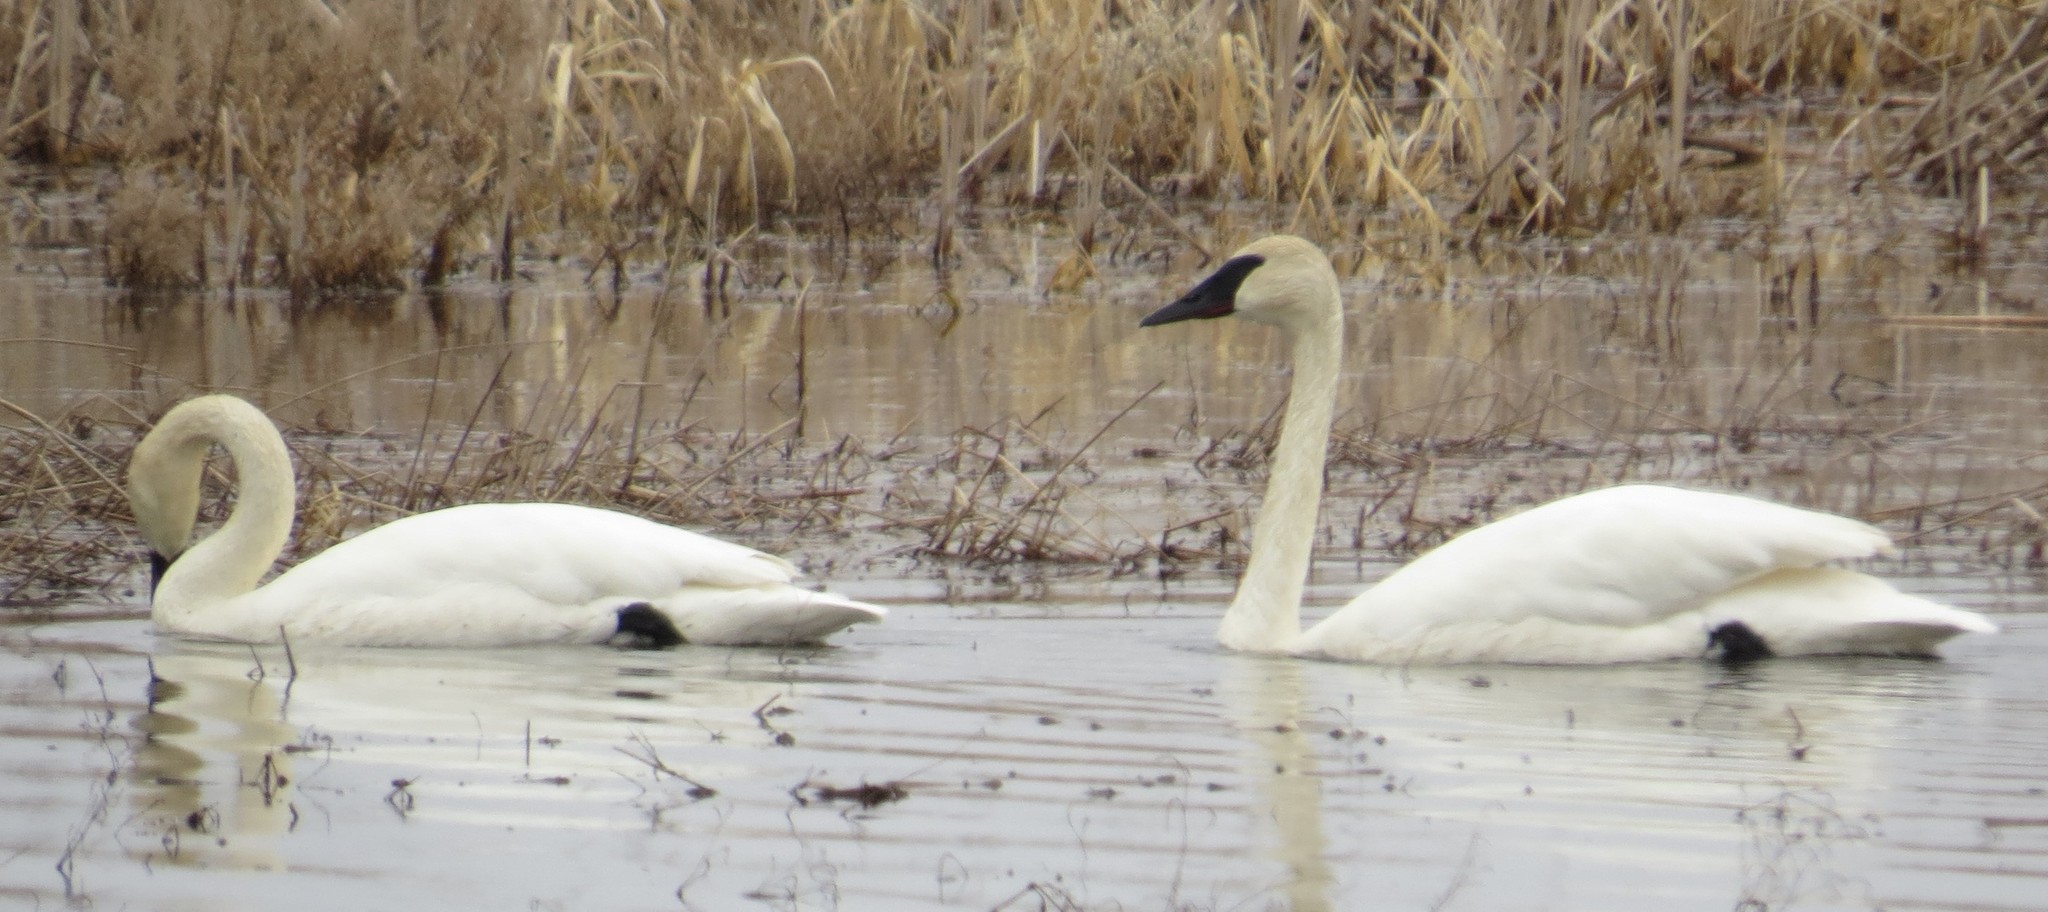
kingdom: Animalia
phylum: Chordata
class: Aves
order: Anseriformes
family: Anatidae
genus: Cygnus
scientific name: Cygnus buccinator
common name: Trumpeter swan
